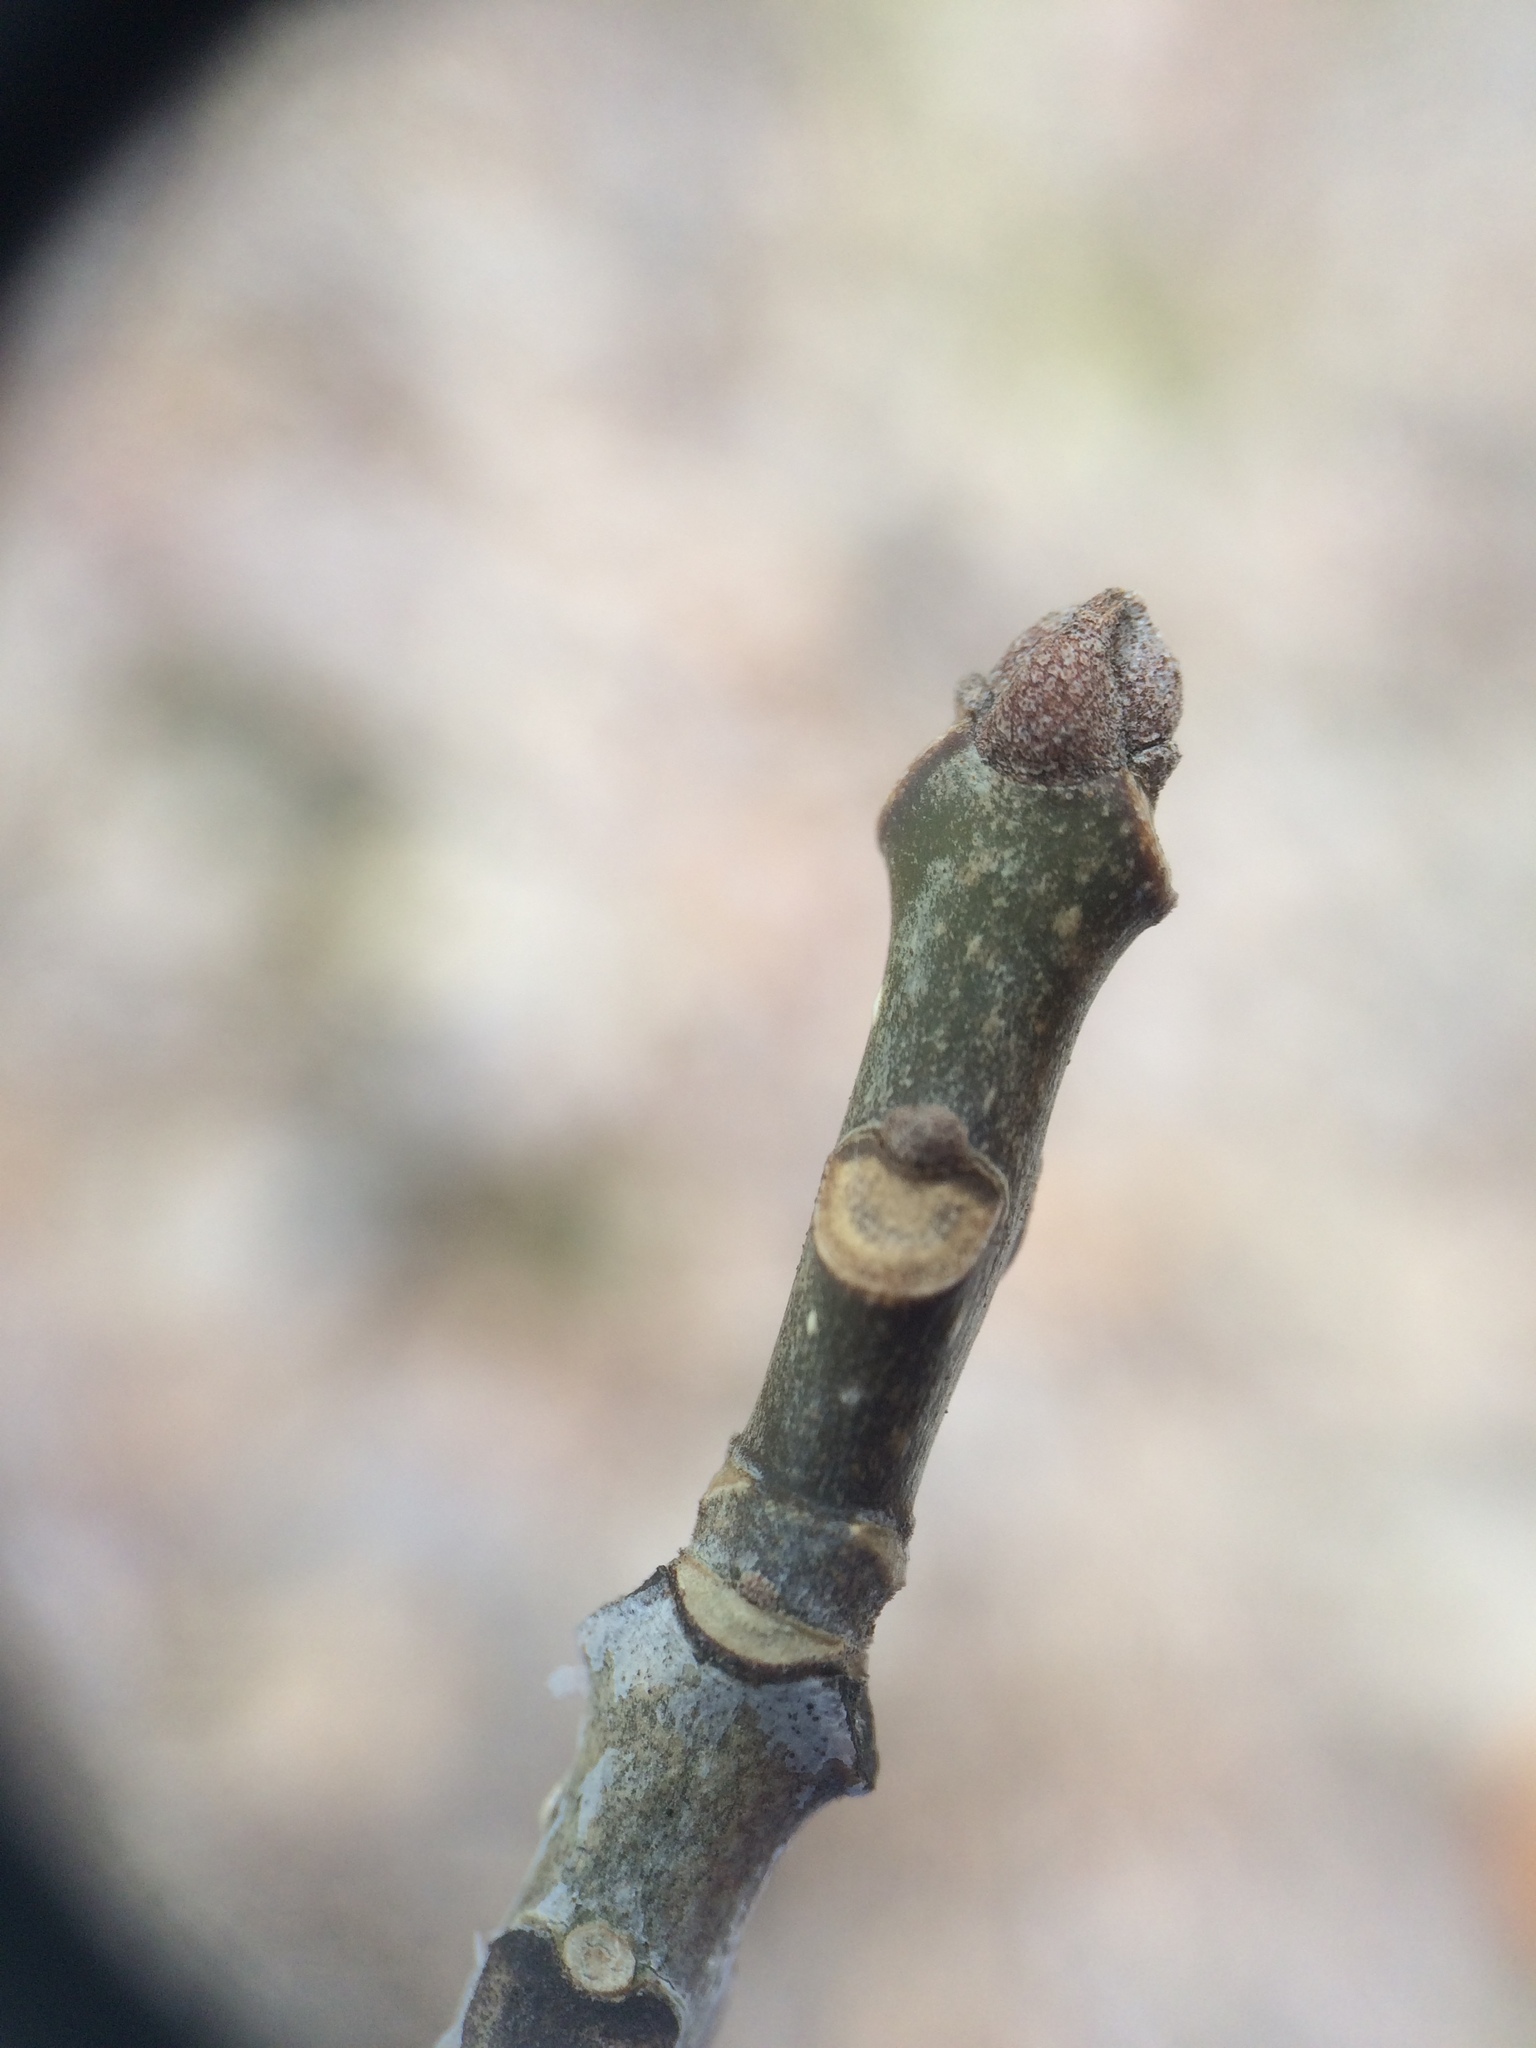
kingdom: Plantae
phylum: Tracheophyta
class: Magnoliopsida
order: Lamiales
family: Oleaceae
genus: Fraxinus
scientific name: Fraxinus americana
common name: White ash
